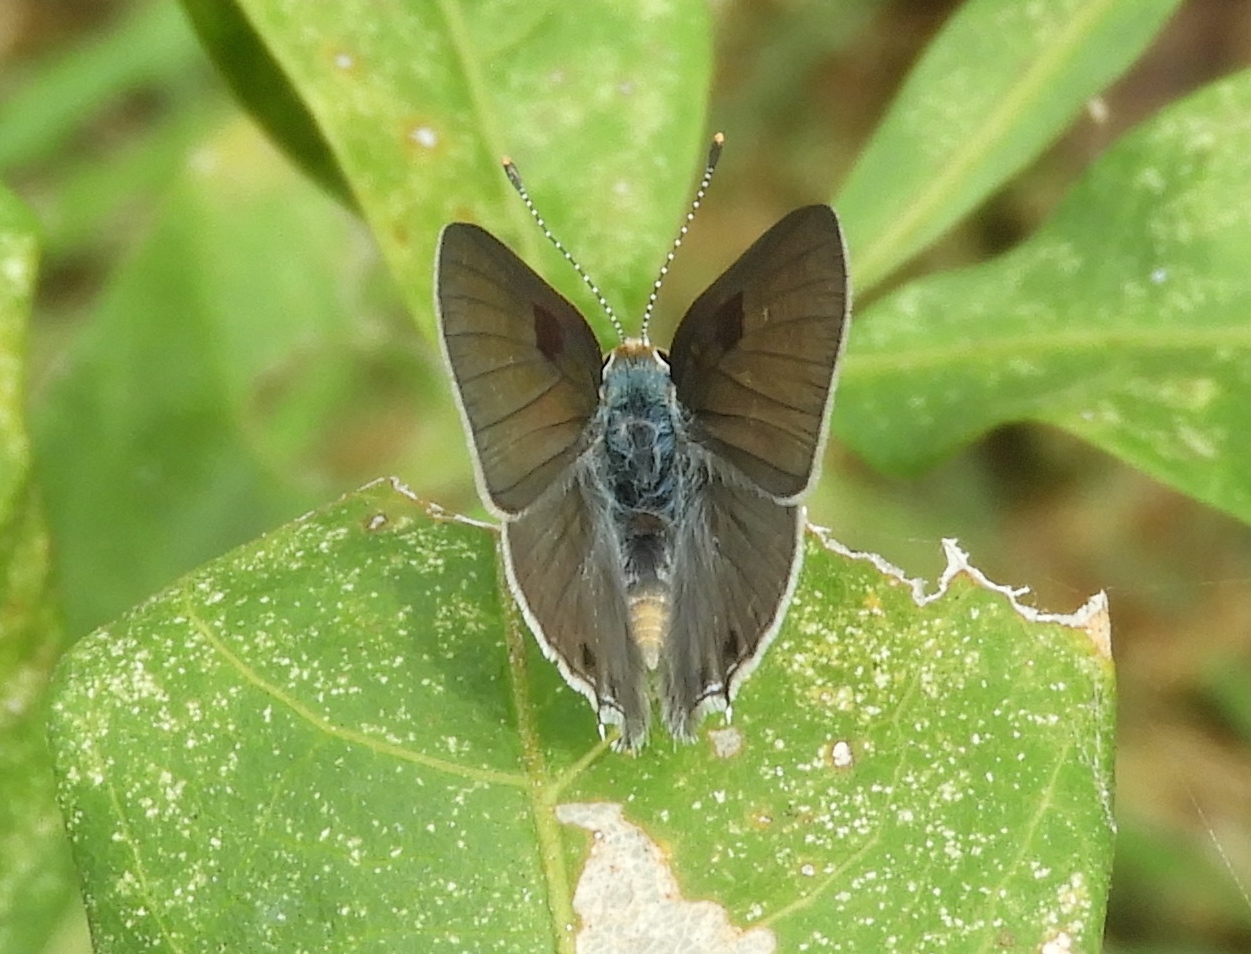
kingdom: Animalia
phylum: Arthropoda
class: Insecta
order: Lepidoptera
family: Lycaenidae
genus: Callicista
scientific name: Callicista columella
